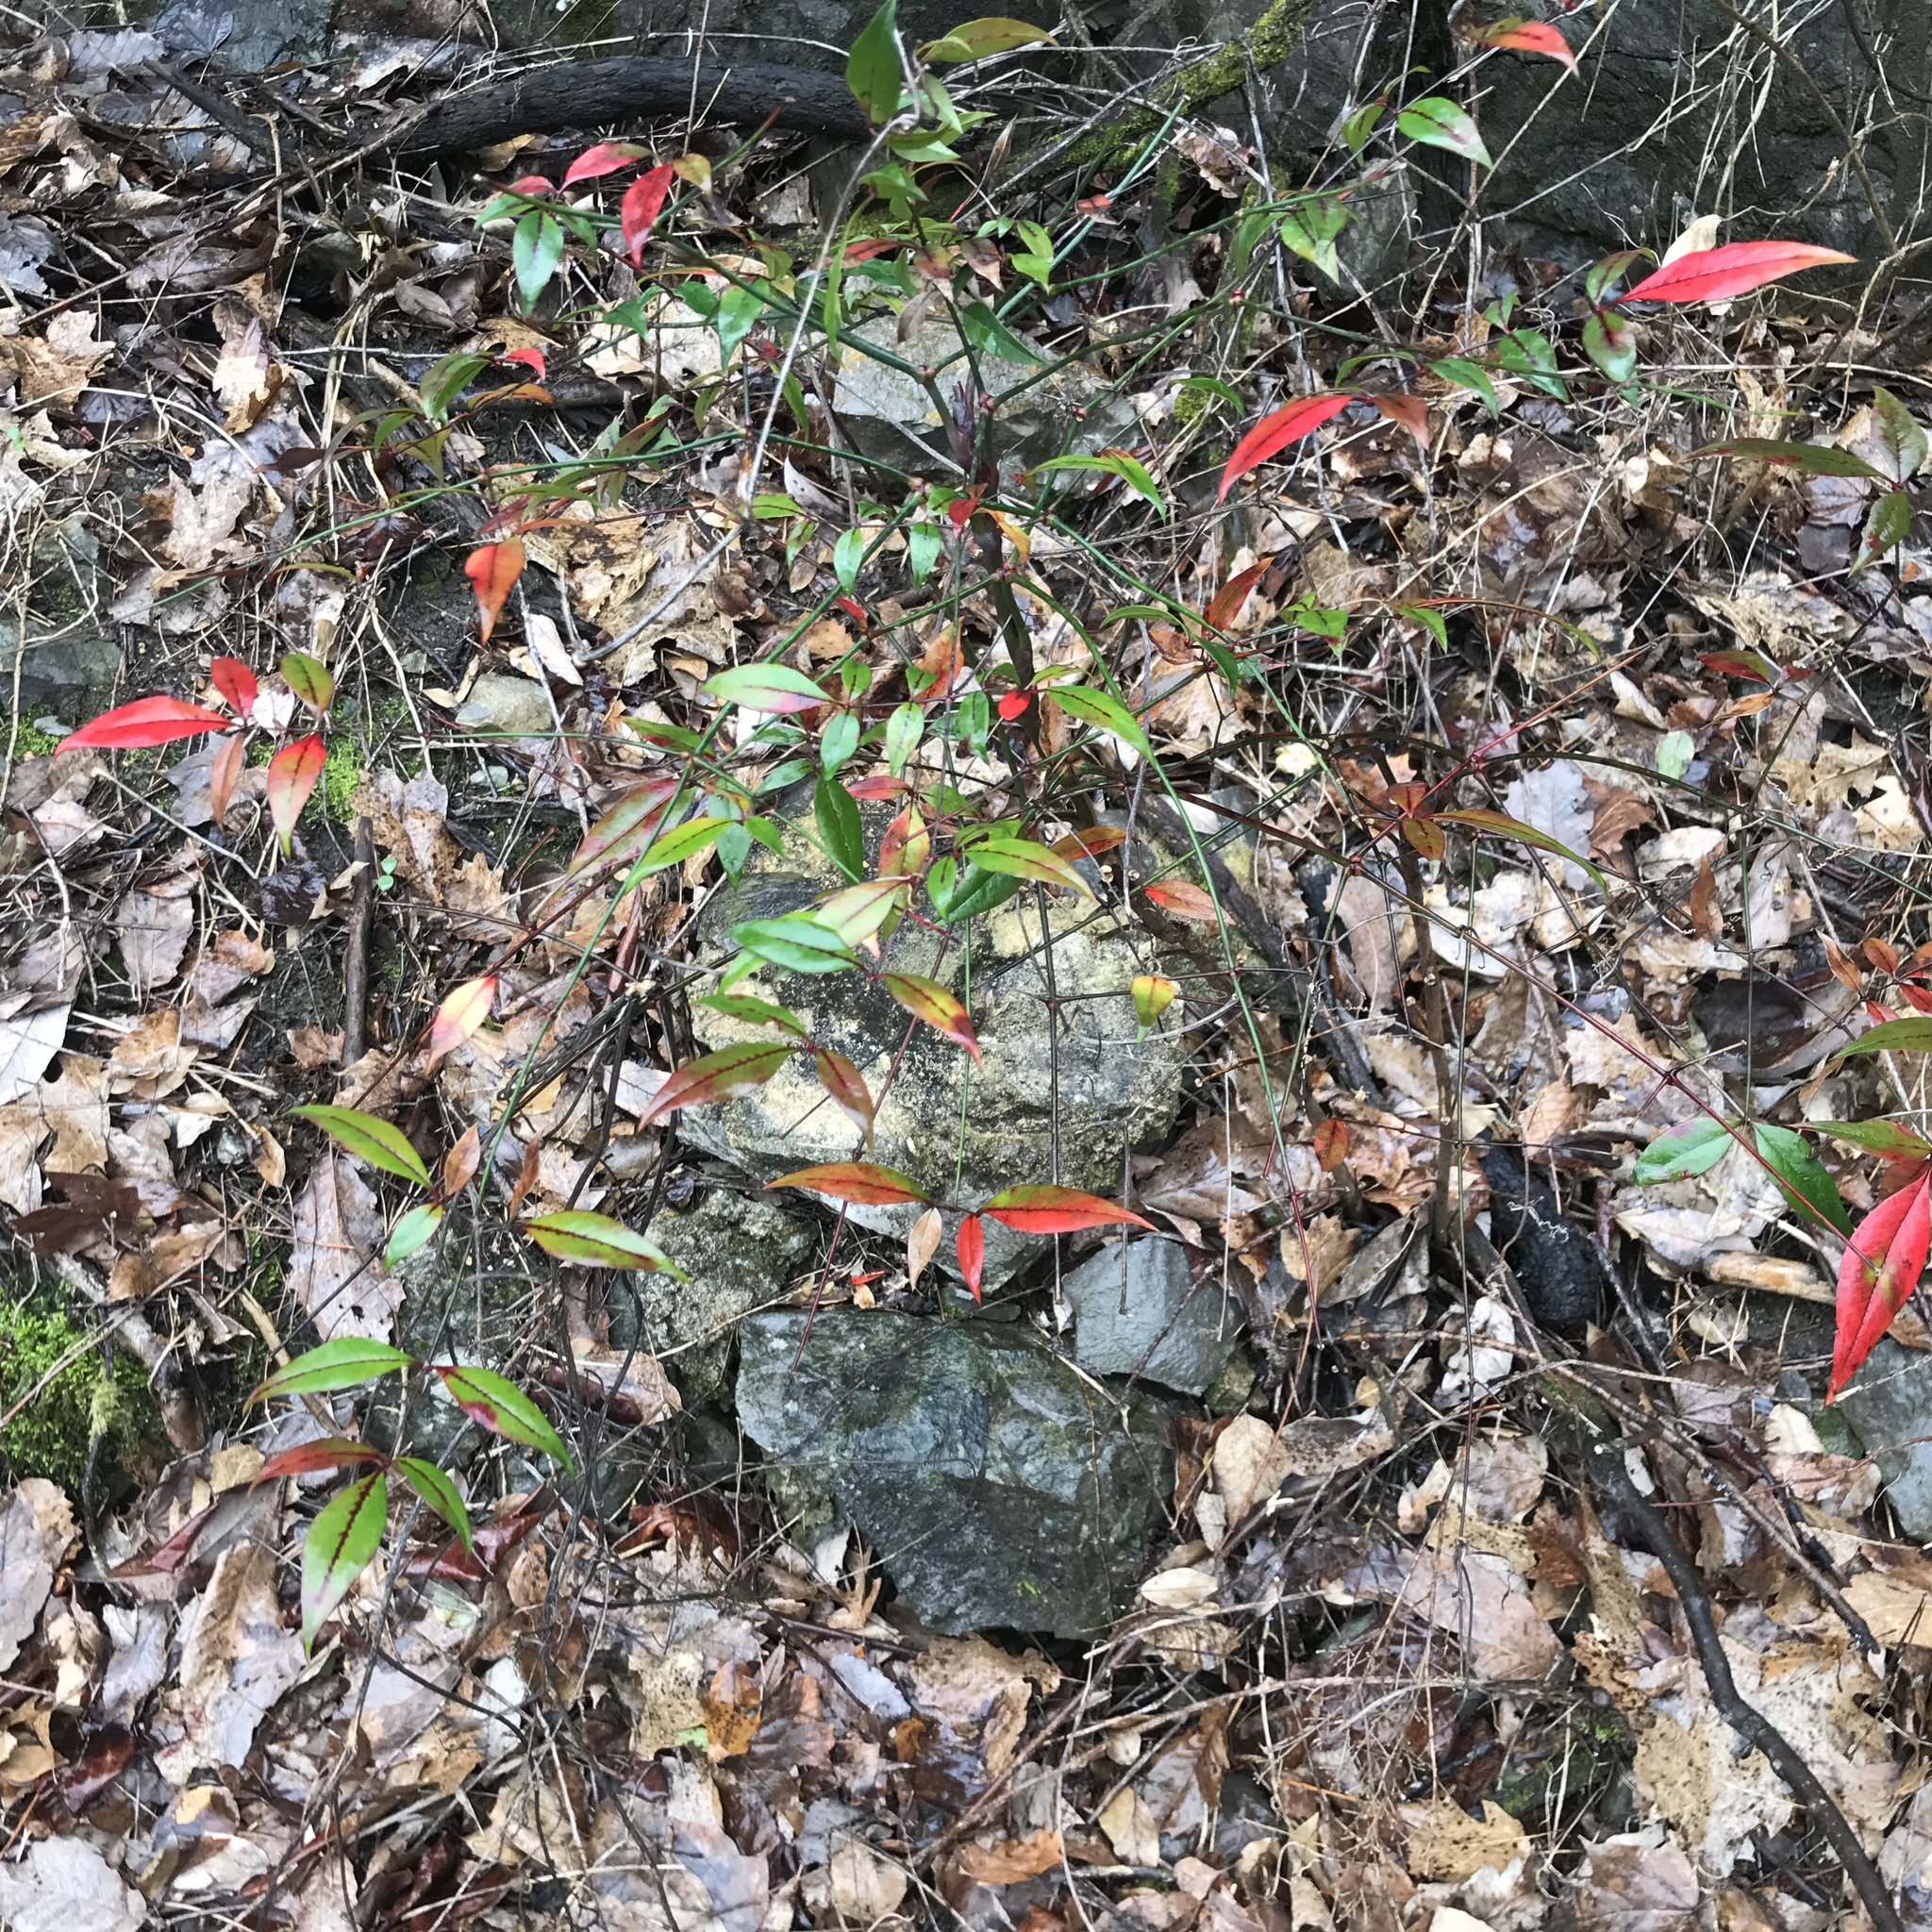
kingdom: Plantae
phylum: Tracheophyta
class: Magnoliopsida
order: Ranunculales
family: Berberidaceae
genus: Nandina
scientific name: Nandina domestica
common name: Sacred bamboo
